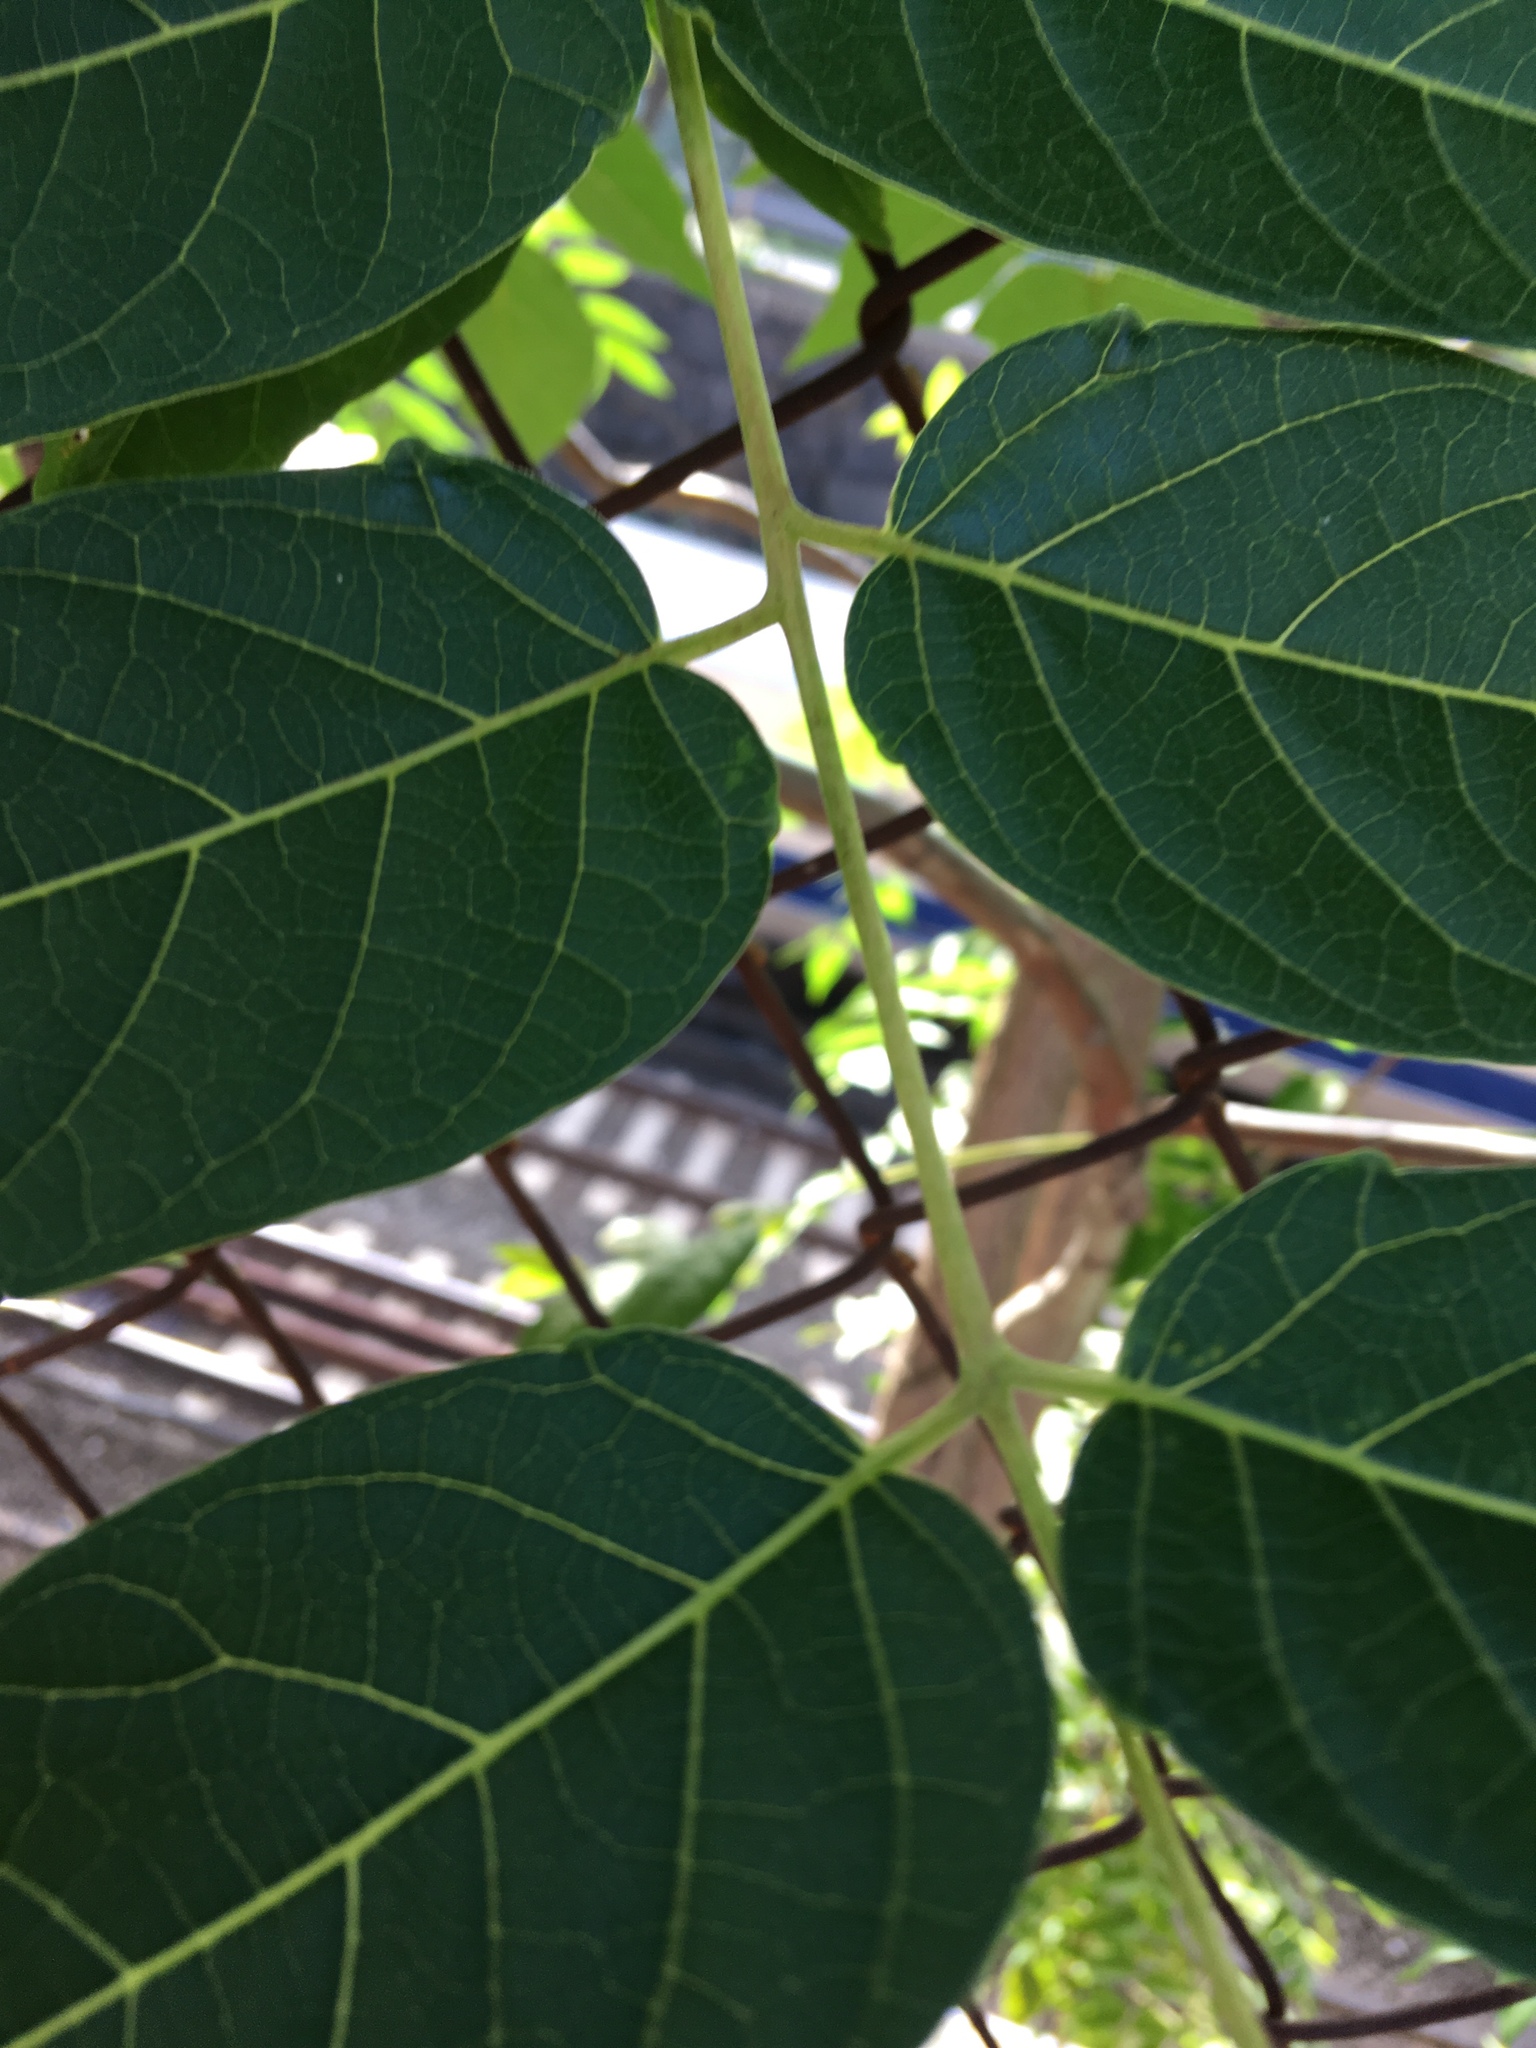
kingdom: Plantae
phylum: Tracheophyta
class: Magnoliopsida
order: Sapindales
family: Simaroubaceae
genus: Ailanthus
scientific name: Ailanthus altissima
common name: Tree-of-heaven
